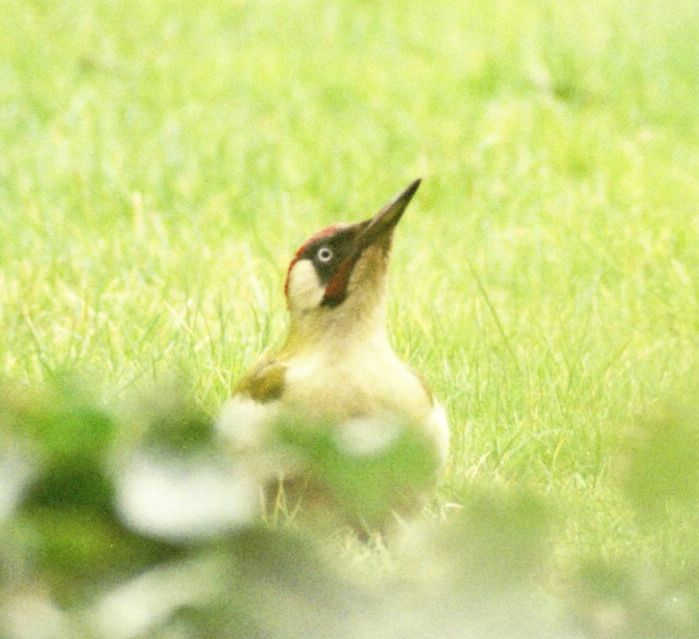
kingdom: Animalia
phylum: Chordata
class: Aves
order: Piciformes
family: Picidae
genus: Picus
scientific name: Picus viridis
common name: European green woodpecker
